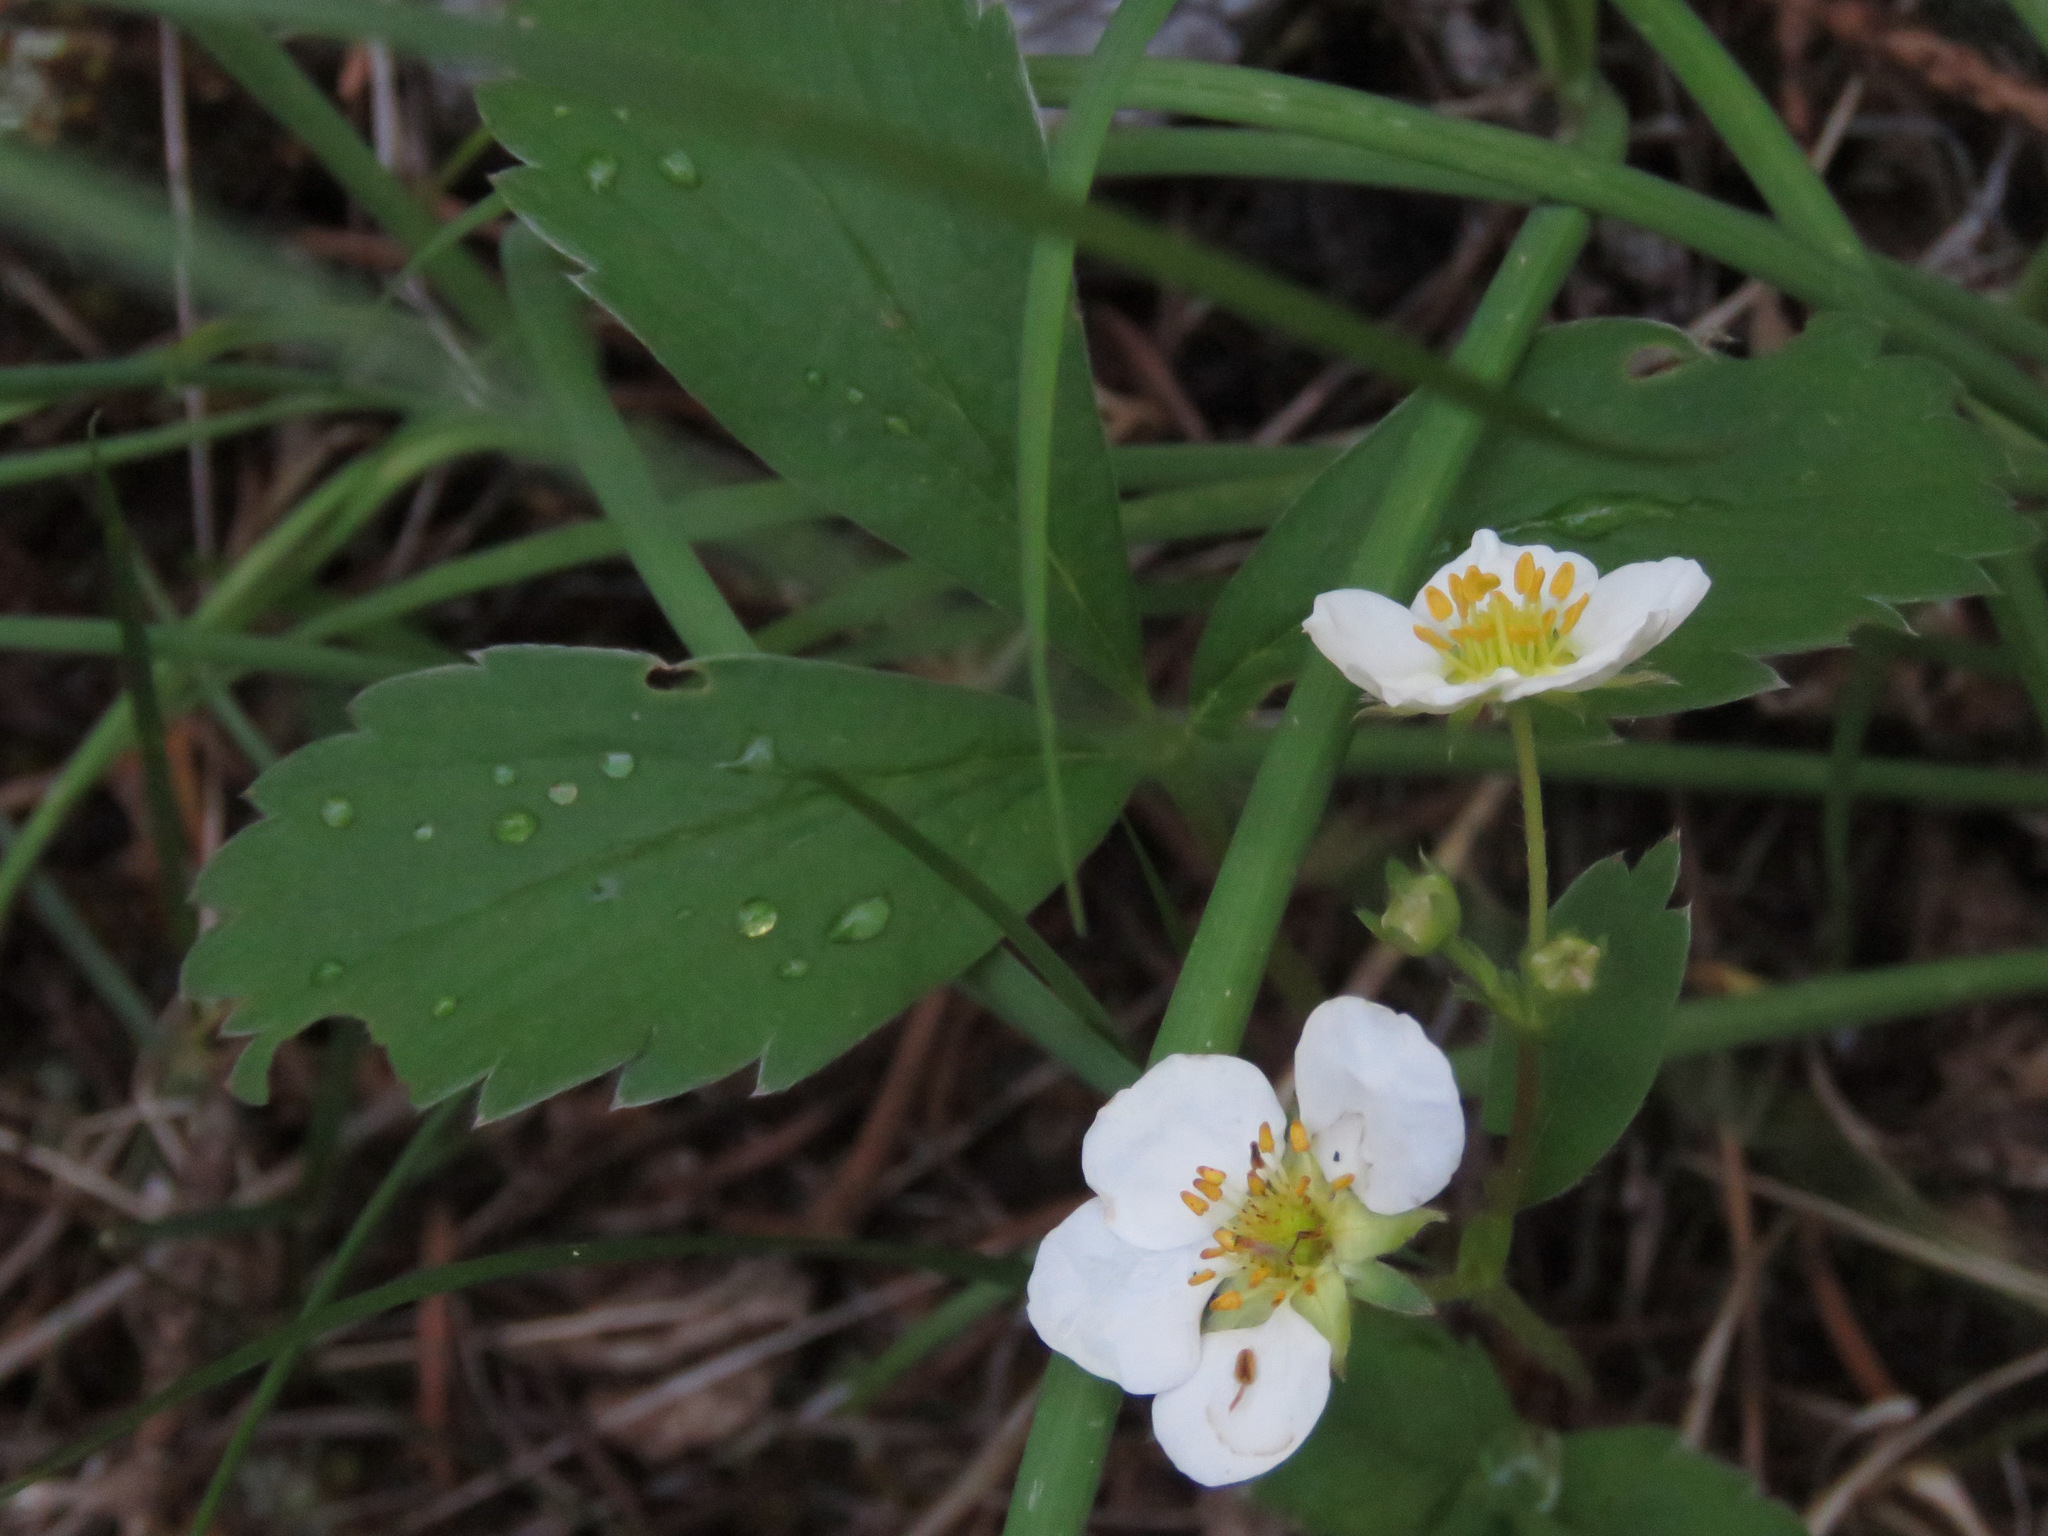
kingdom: Plantae
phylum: Tracheophyta
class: Magnoliopsida
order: Rosales
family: Rosaceae
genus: Fragaria
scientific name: Fragaria virginiana
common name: Thickleaved wild strawberry
